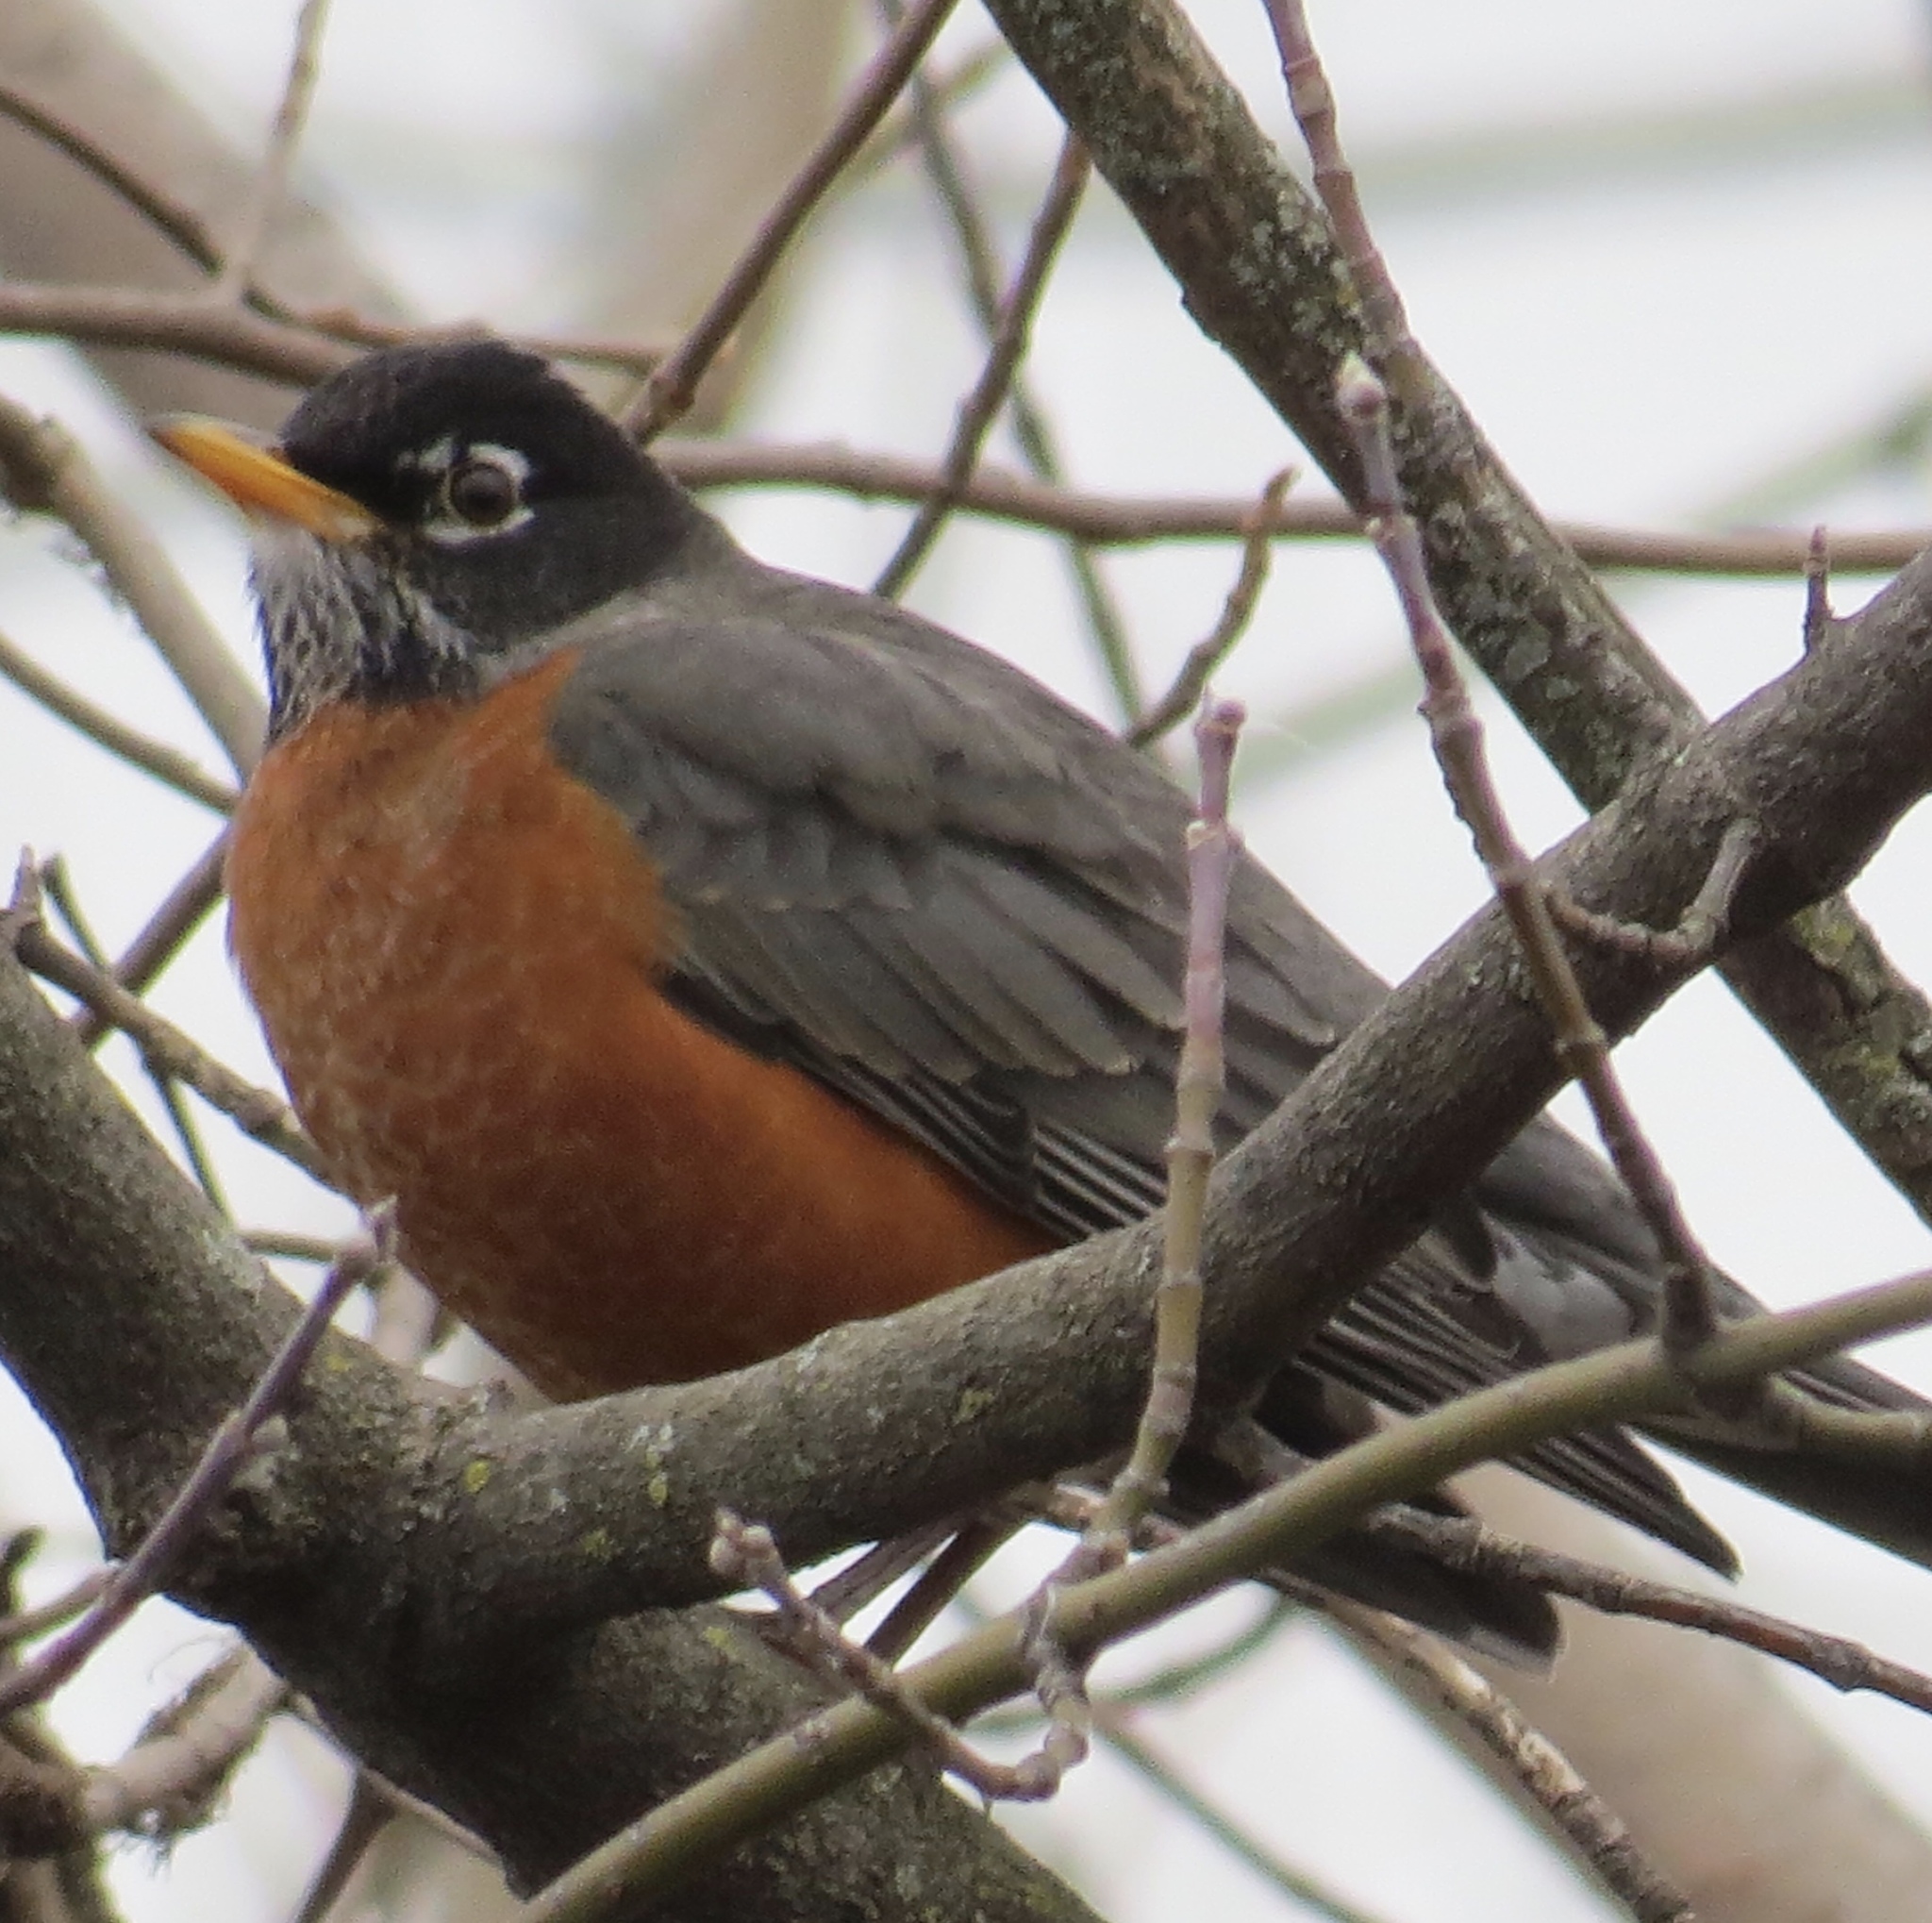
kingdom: Animalia
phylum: Chordata
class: Aves
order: Passeriformes
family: Turdidae
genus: Turdus
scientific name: Turdus migratorius
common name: American robin
